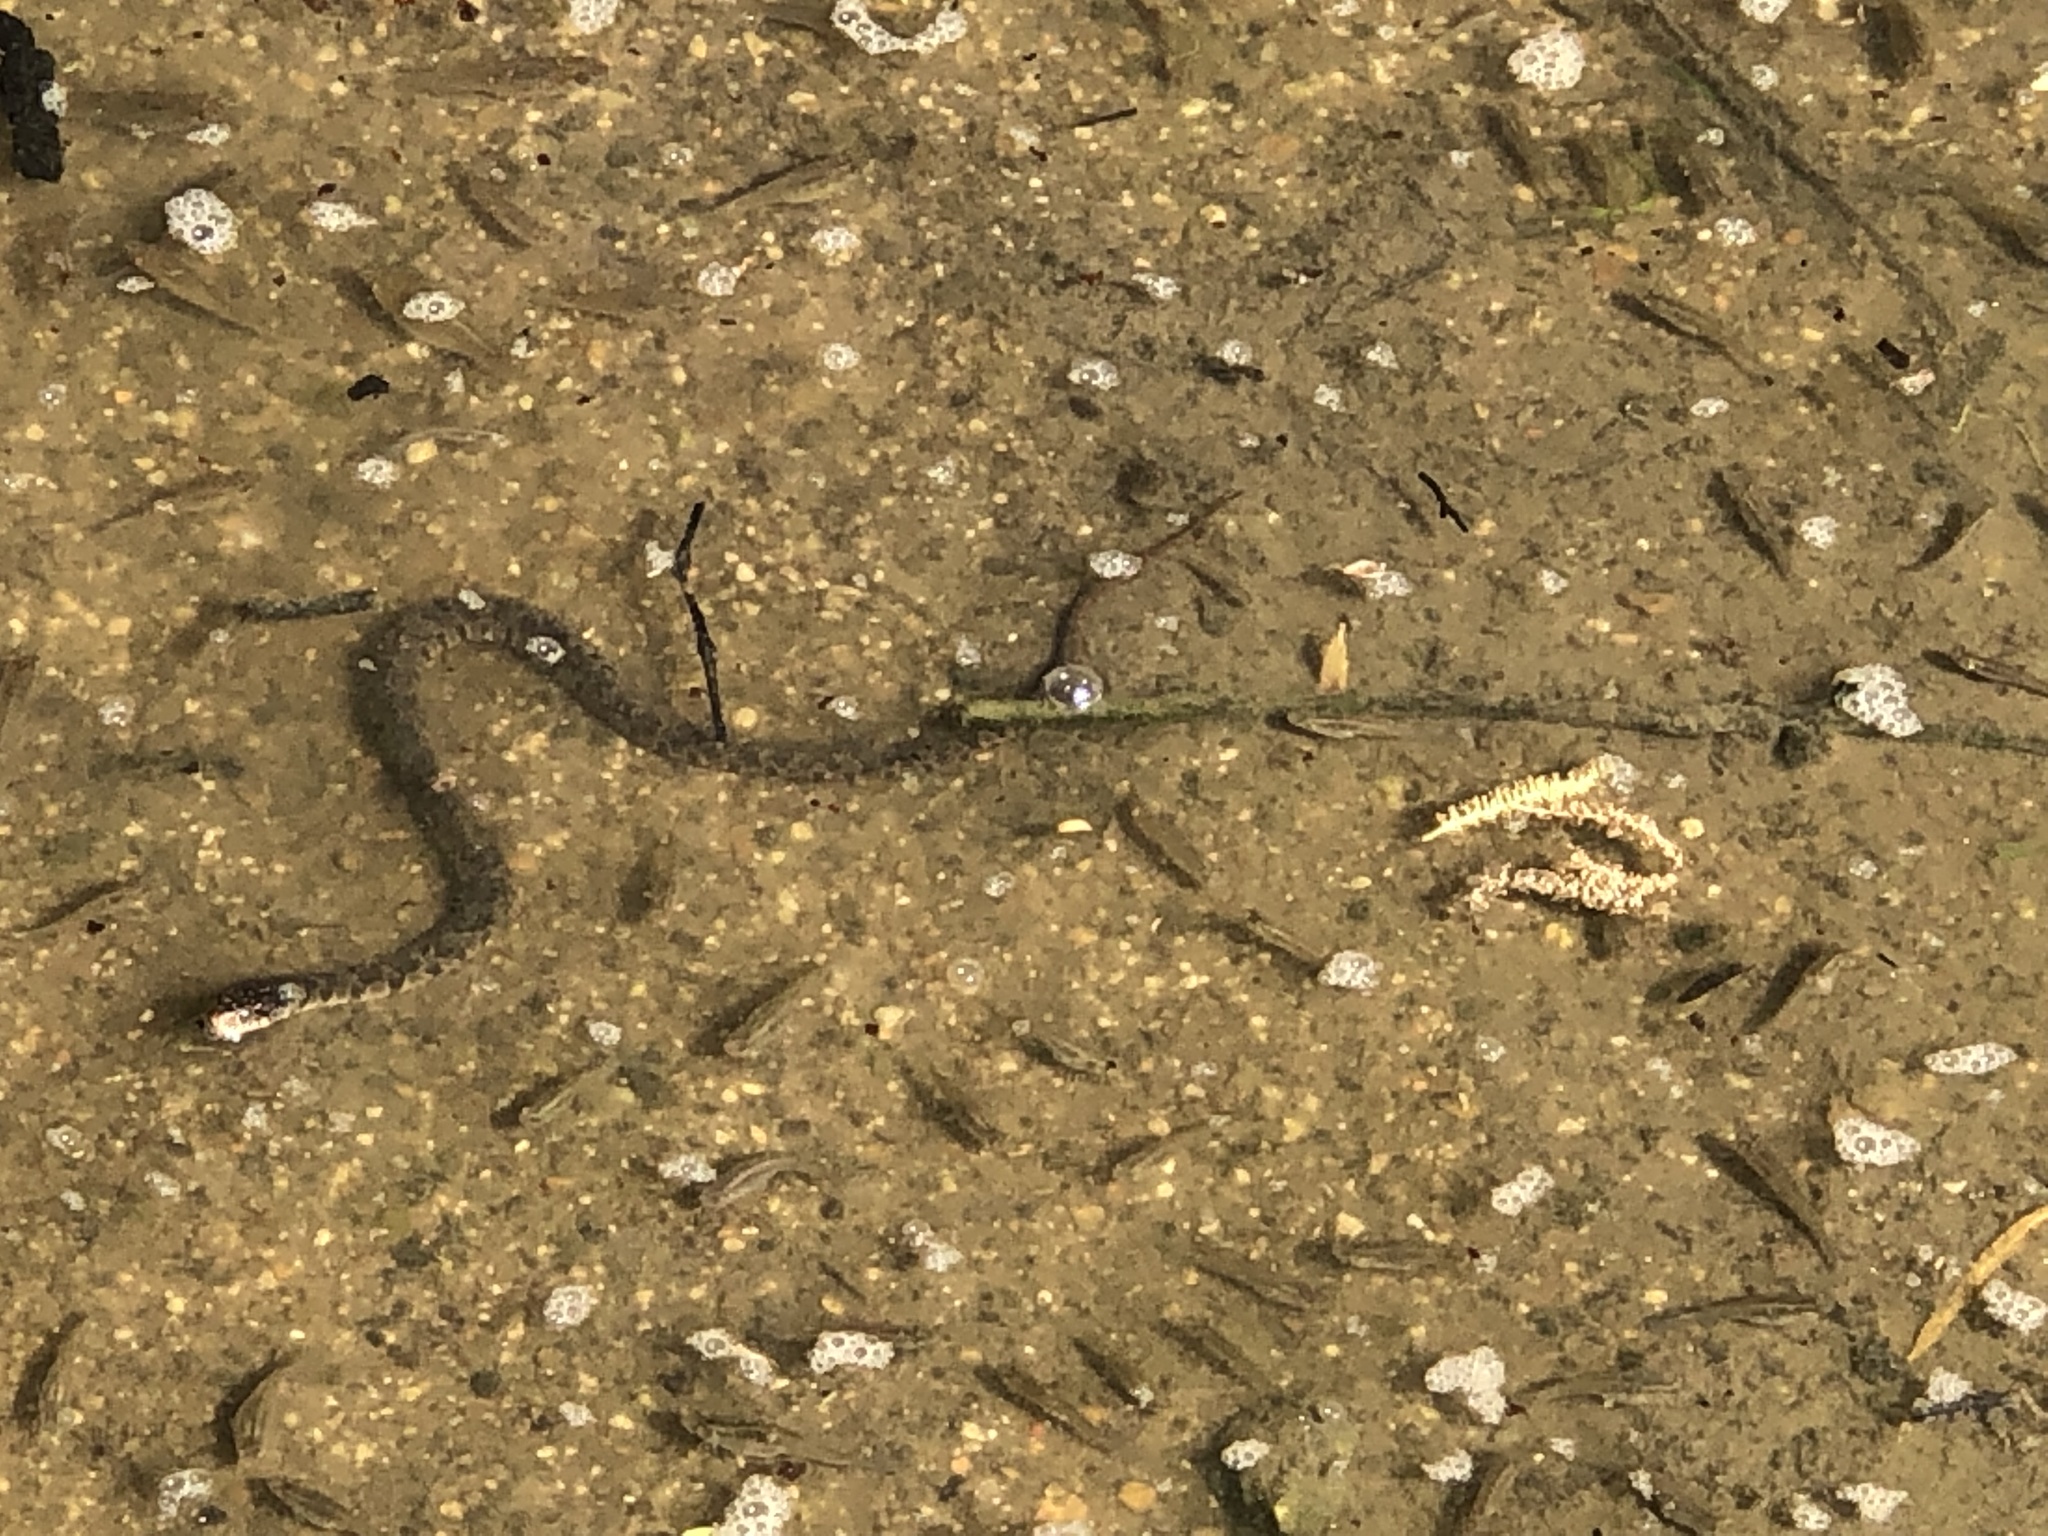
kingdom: Animalia
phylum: Chordata
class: Squamata
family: Colubridae
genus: Nerodia
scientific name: Nerodia erythrogaster
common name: Plainbelly water snake
